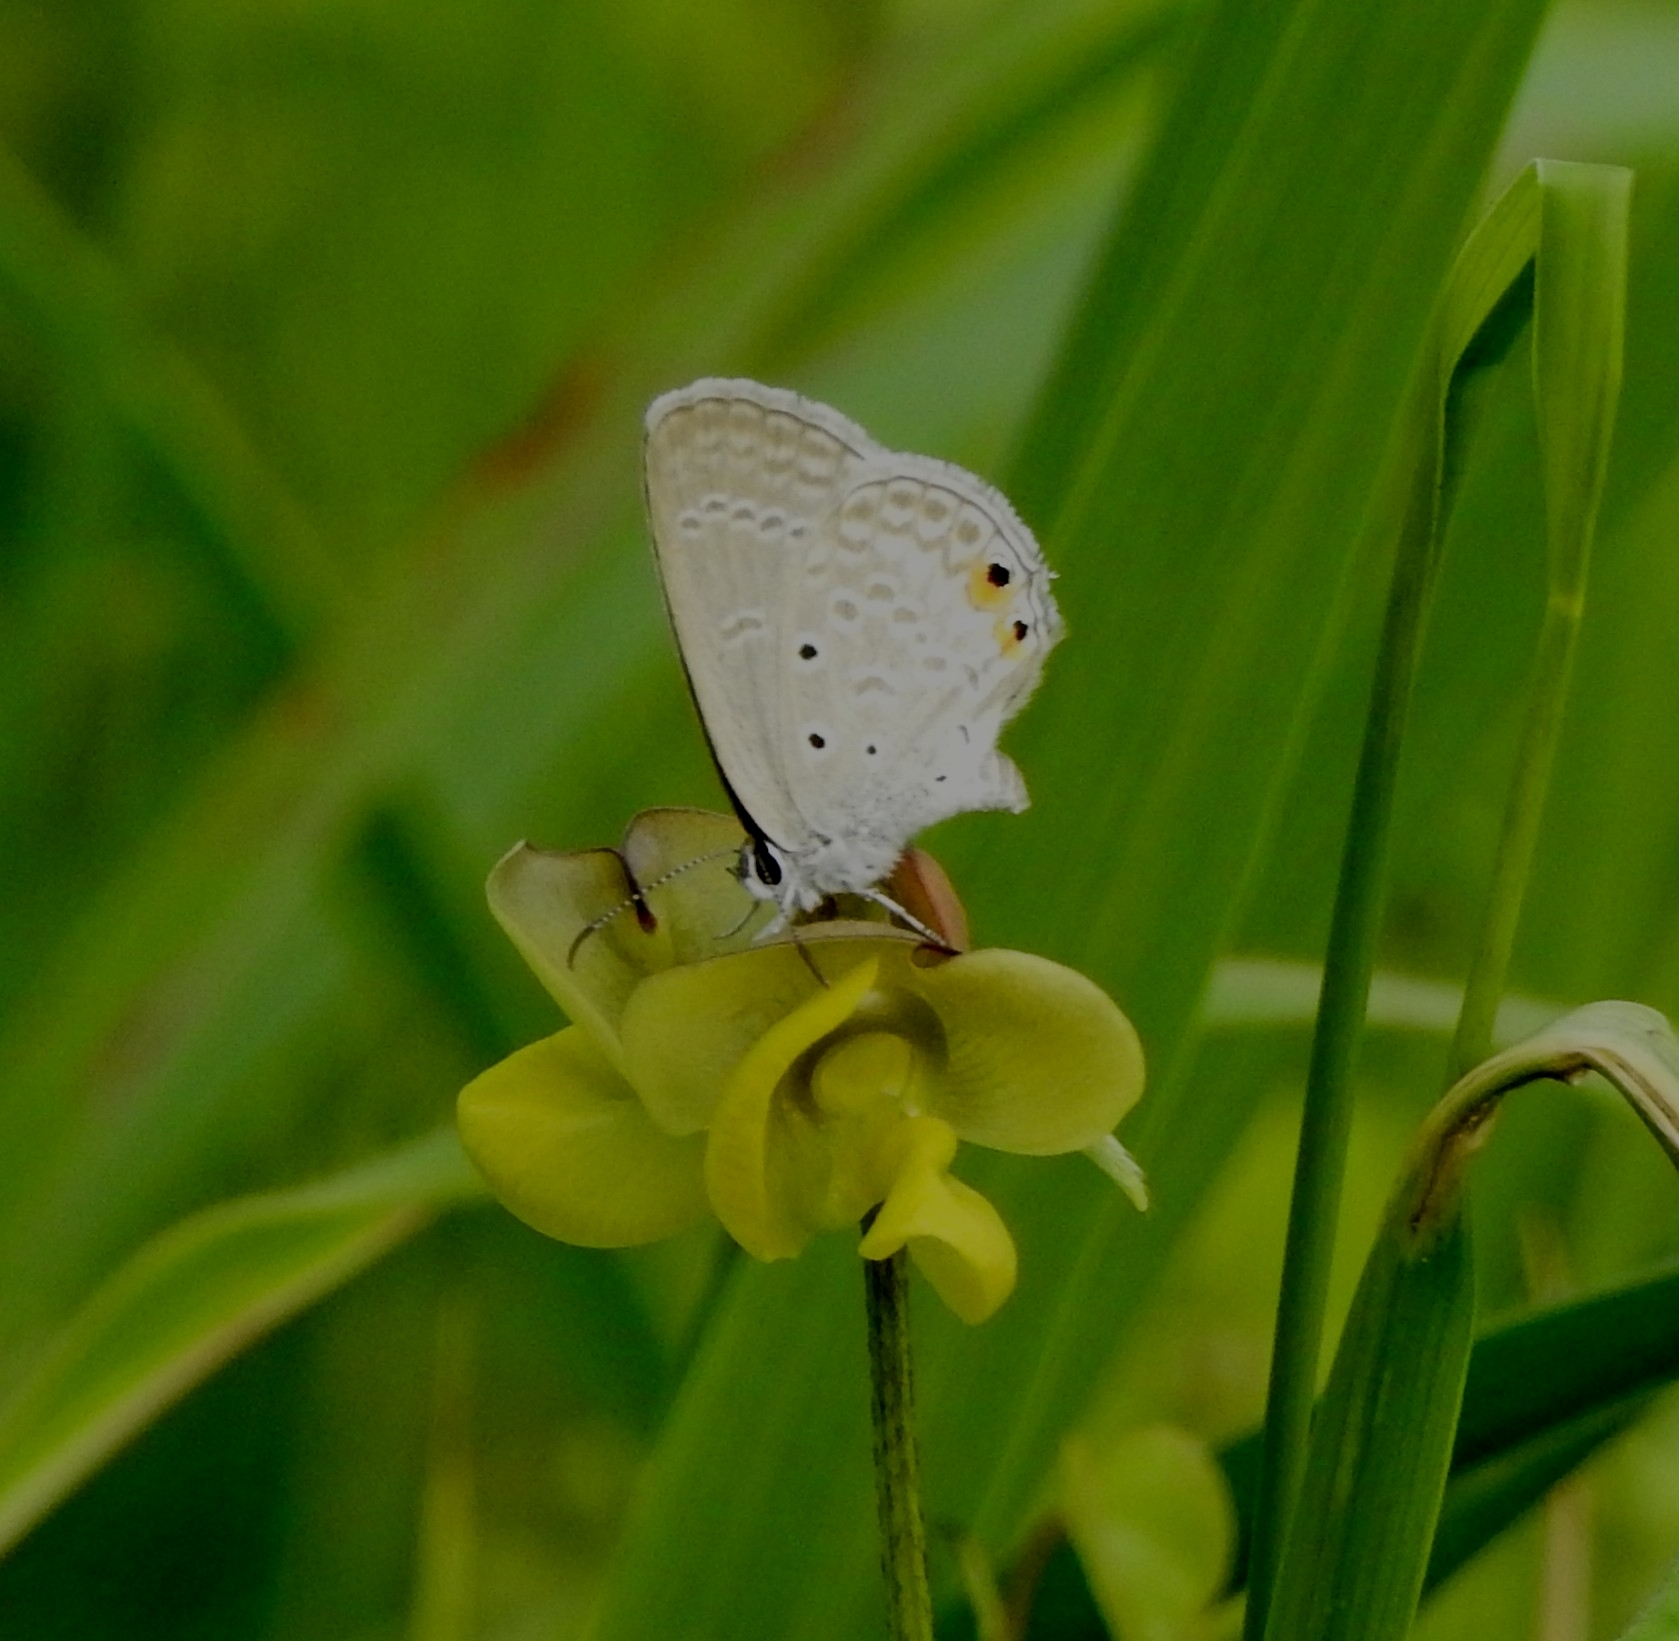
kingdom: Animalia
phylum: Arthropoda
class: Insecta
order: Lepidoptera
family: Lycaenidae
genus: Euchrysops
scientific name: Euchrysops cnejus
